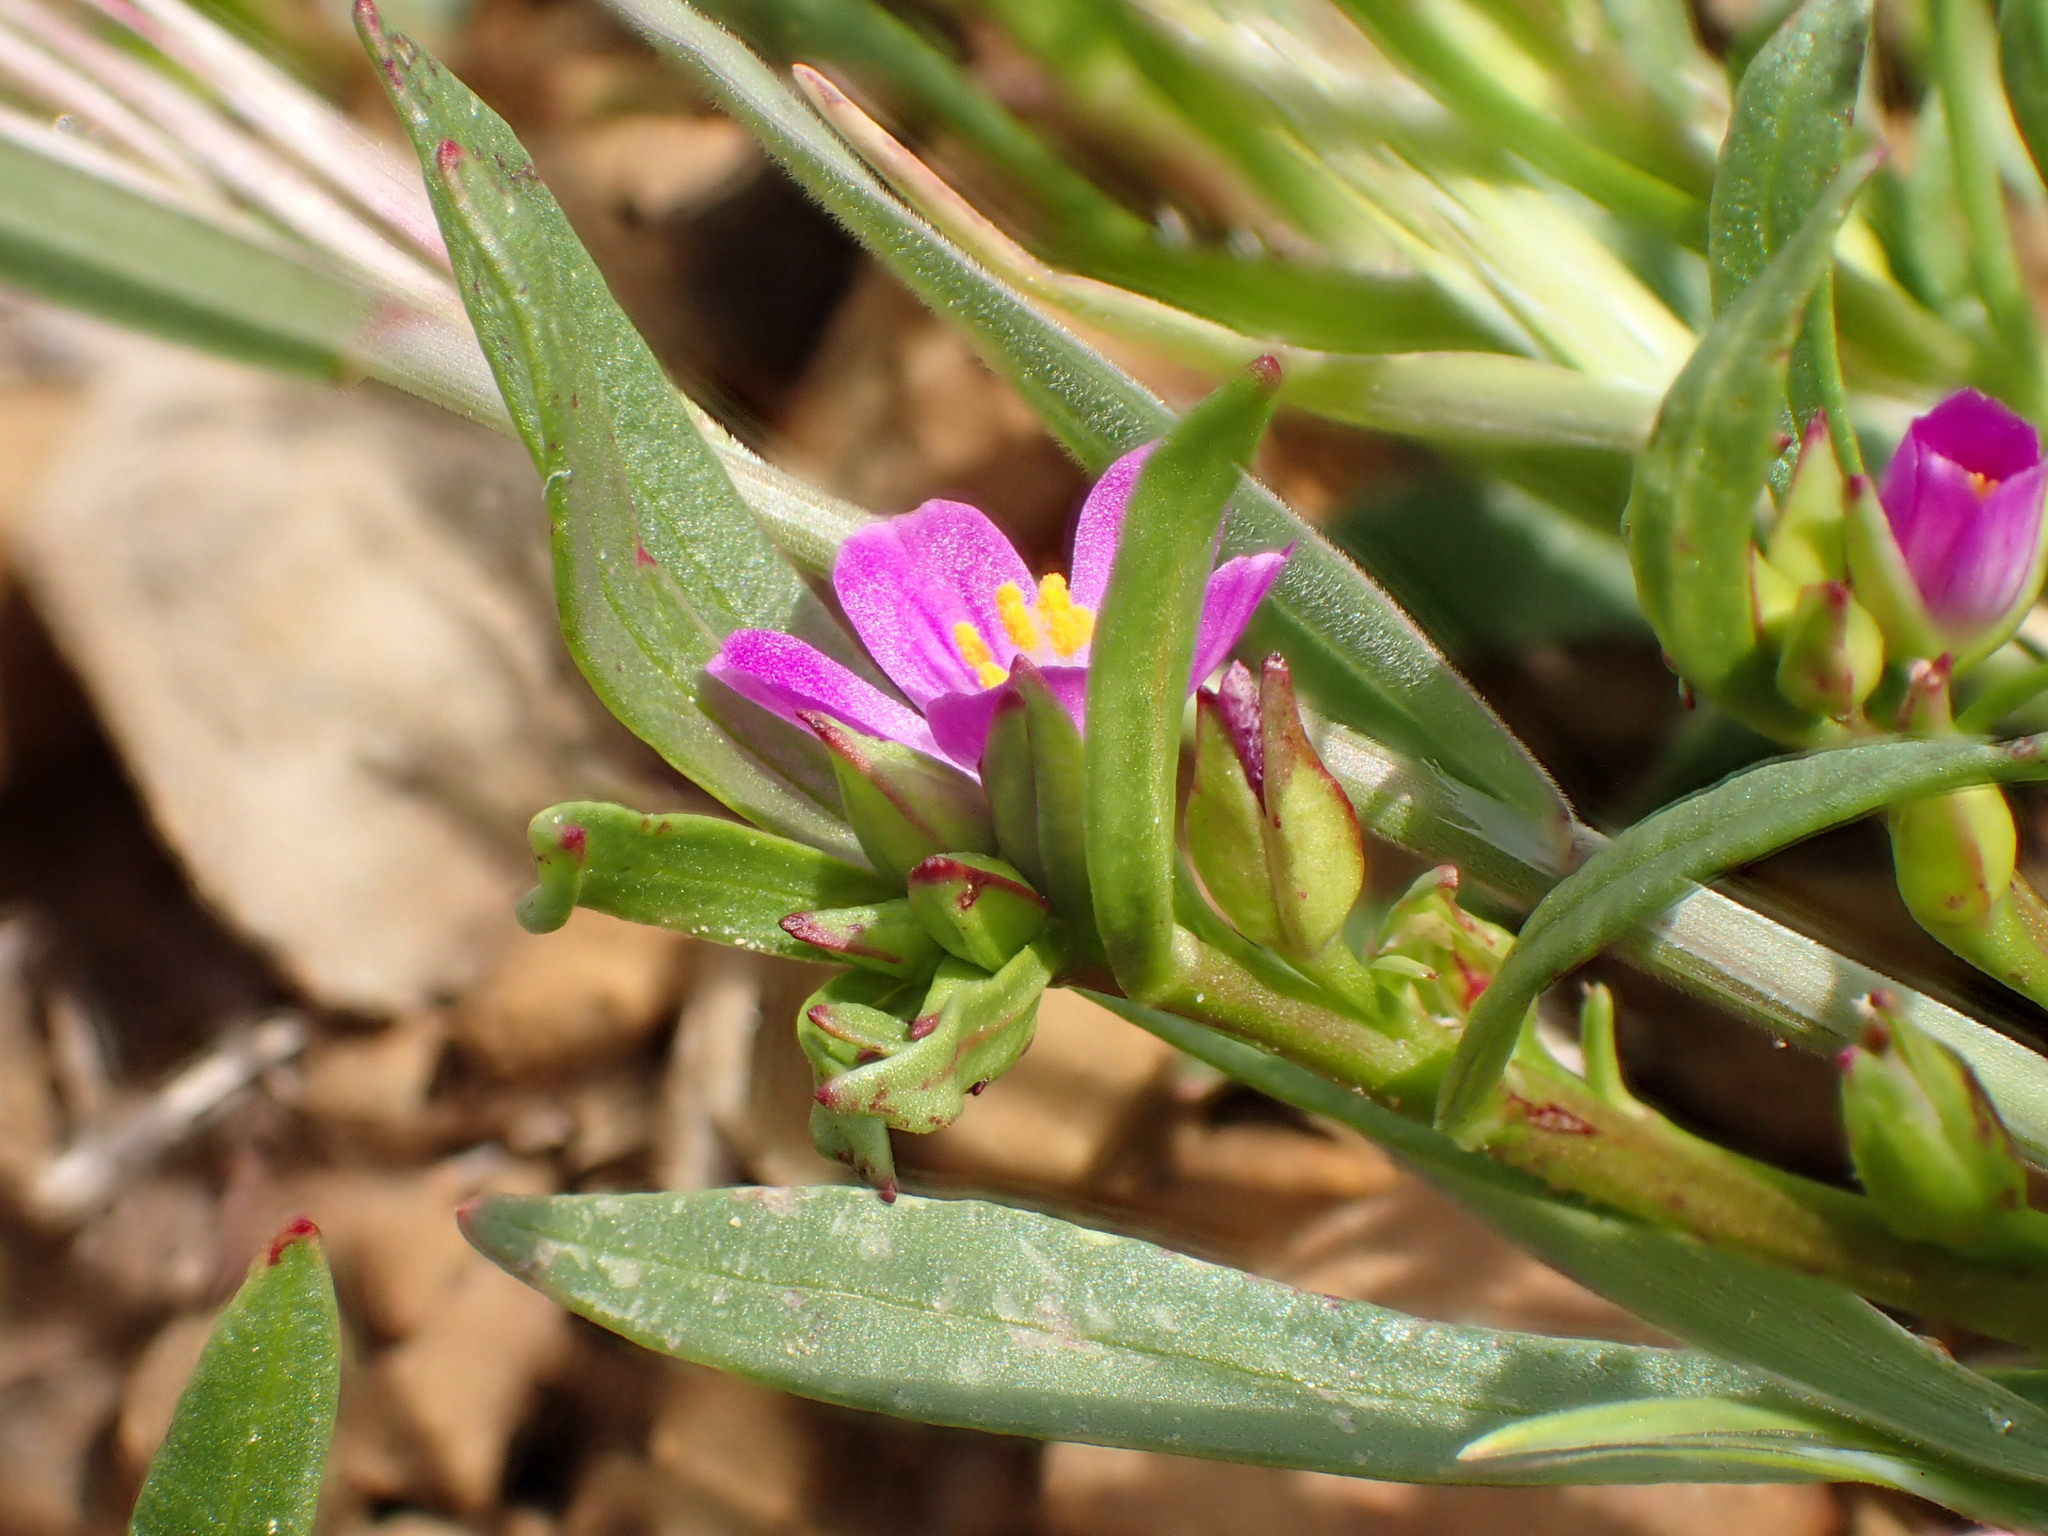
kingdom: Plantae
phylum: Tracheophyta
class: Magnoliopsida
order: Caryophyllales
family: Montiaceae
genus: Calandrinia
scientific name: Calandrinia menziesii
